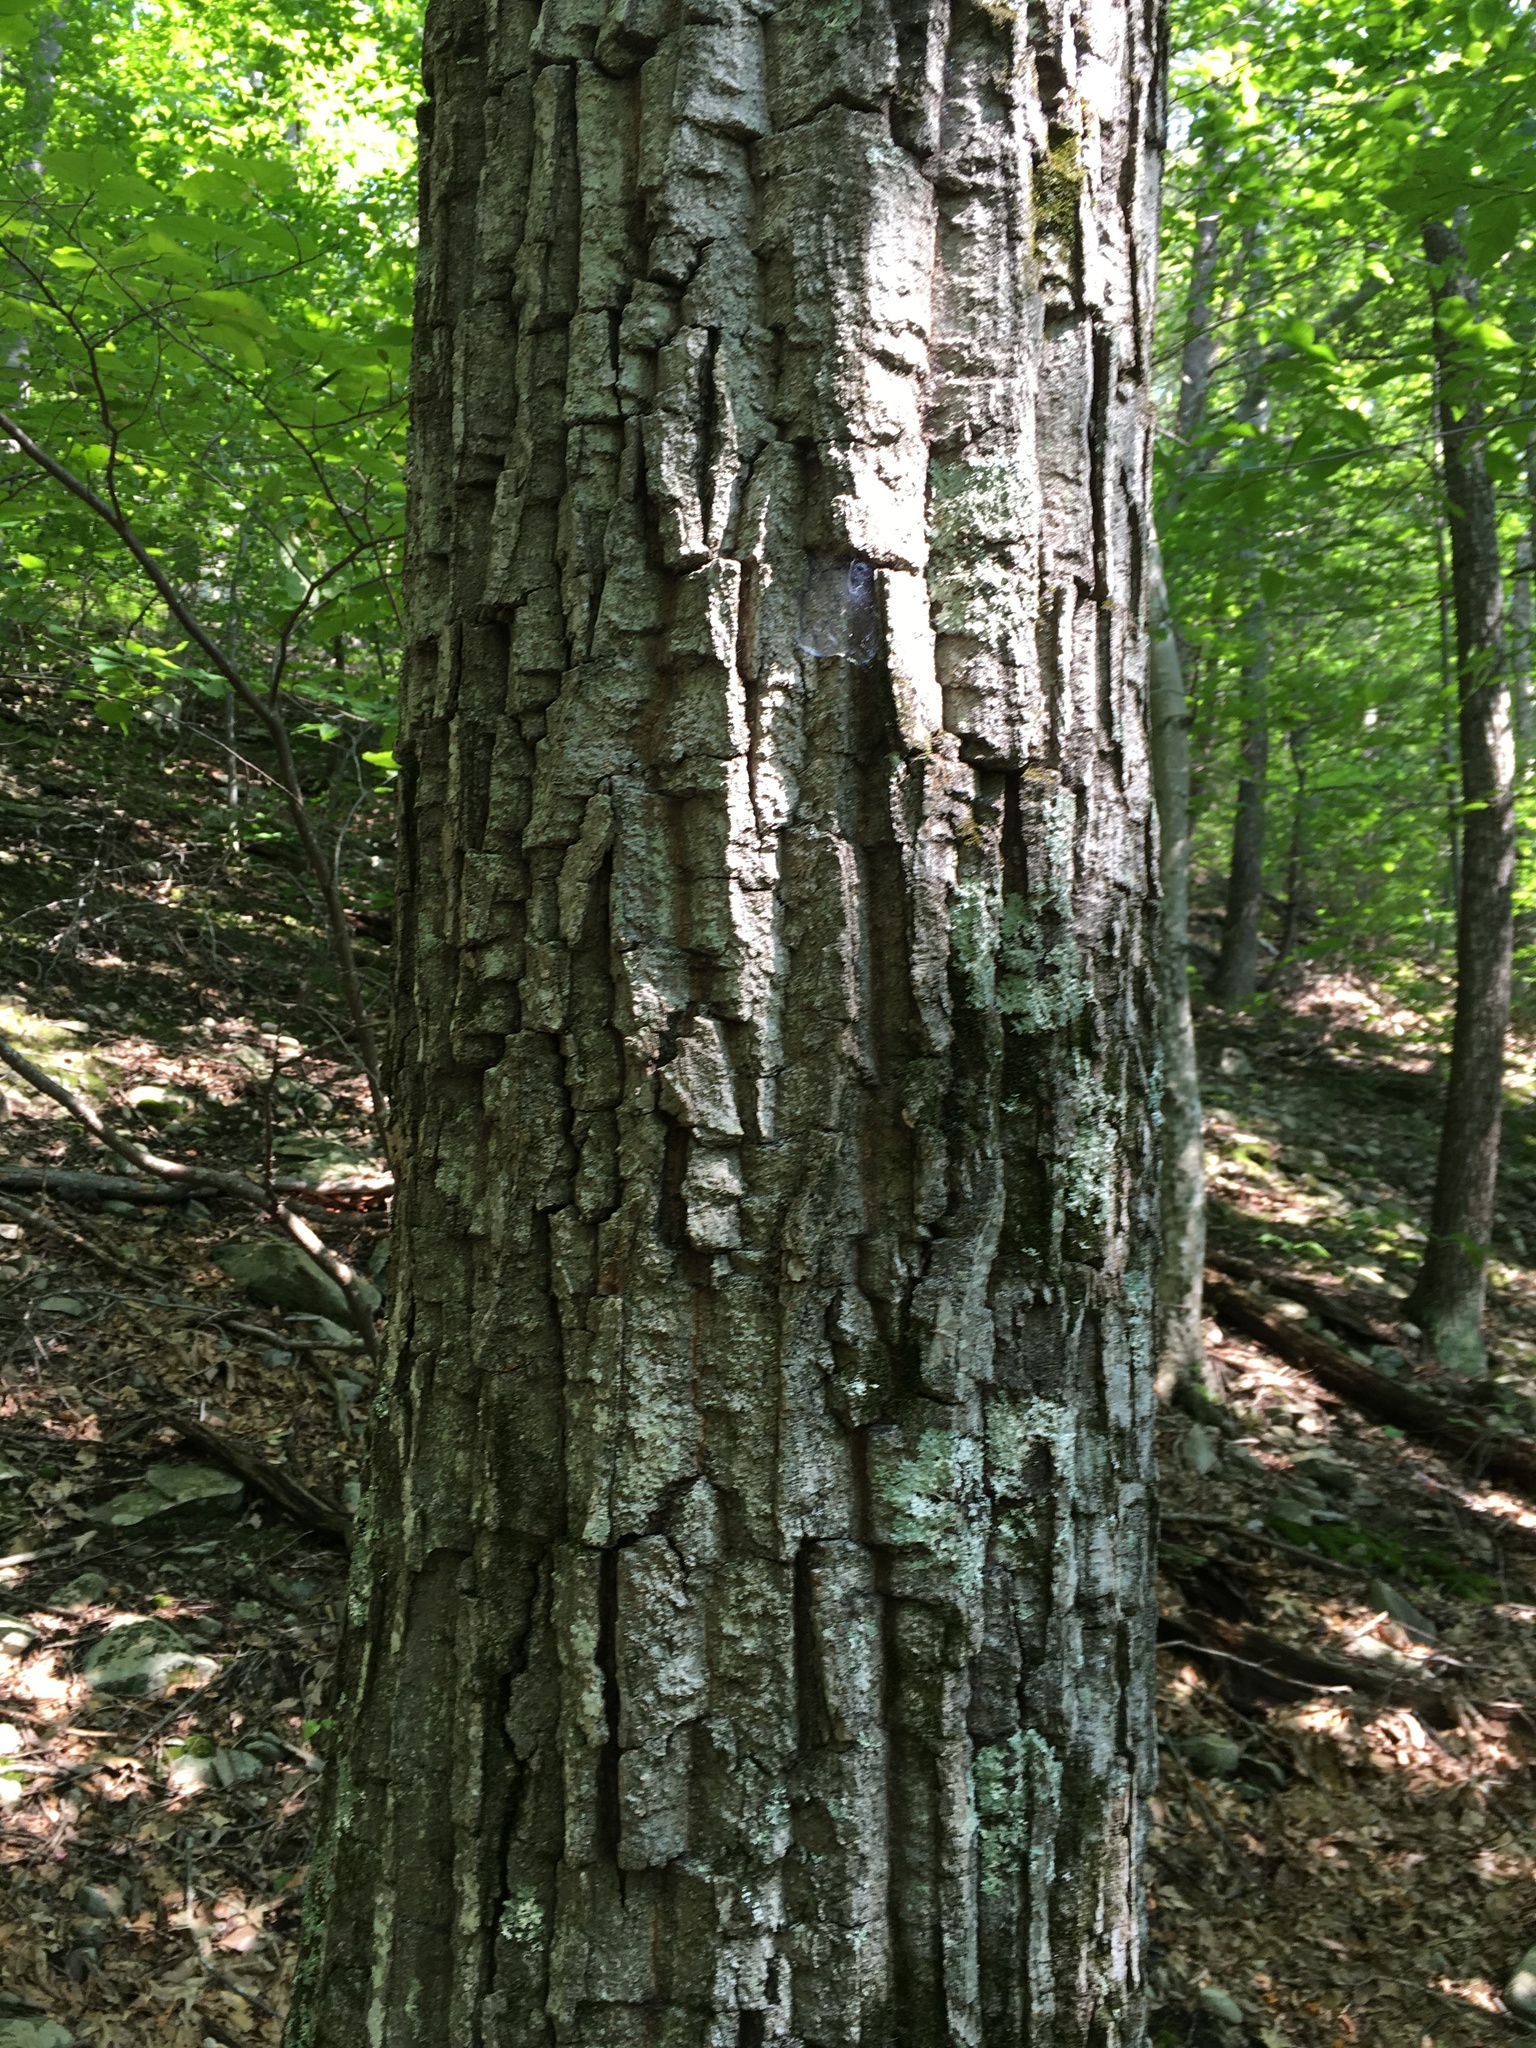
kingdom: Plantae
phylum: Tracheophyta
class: Magnoliopsida
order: Fagales
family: Fagaceae
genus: Quercus
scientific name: Quercus montana
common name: Chestnut oak
